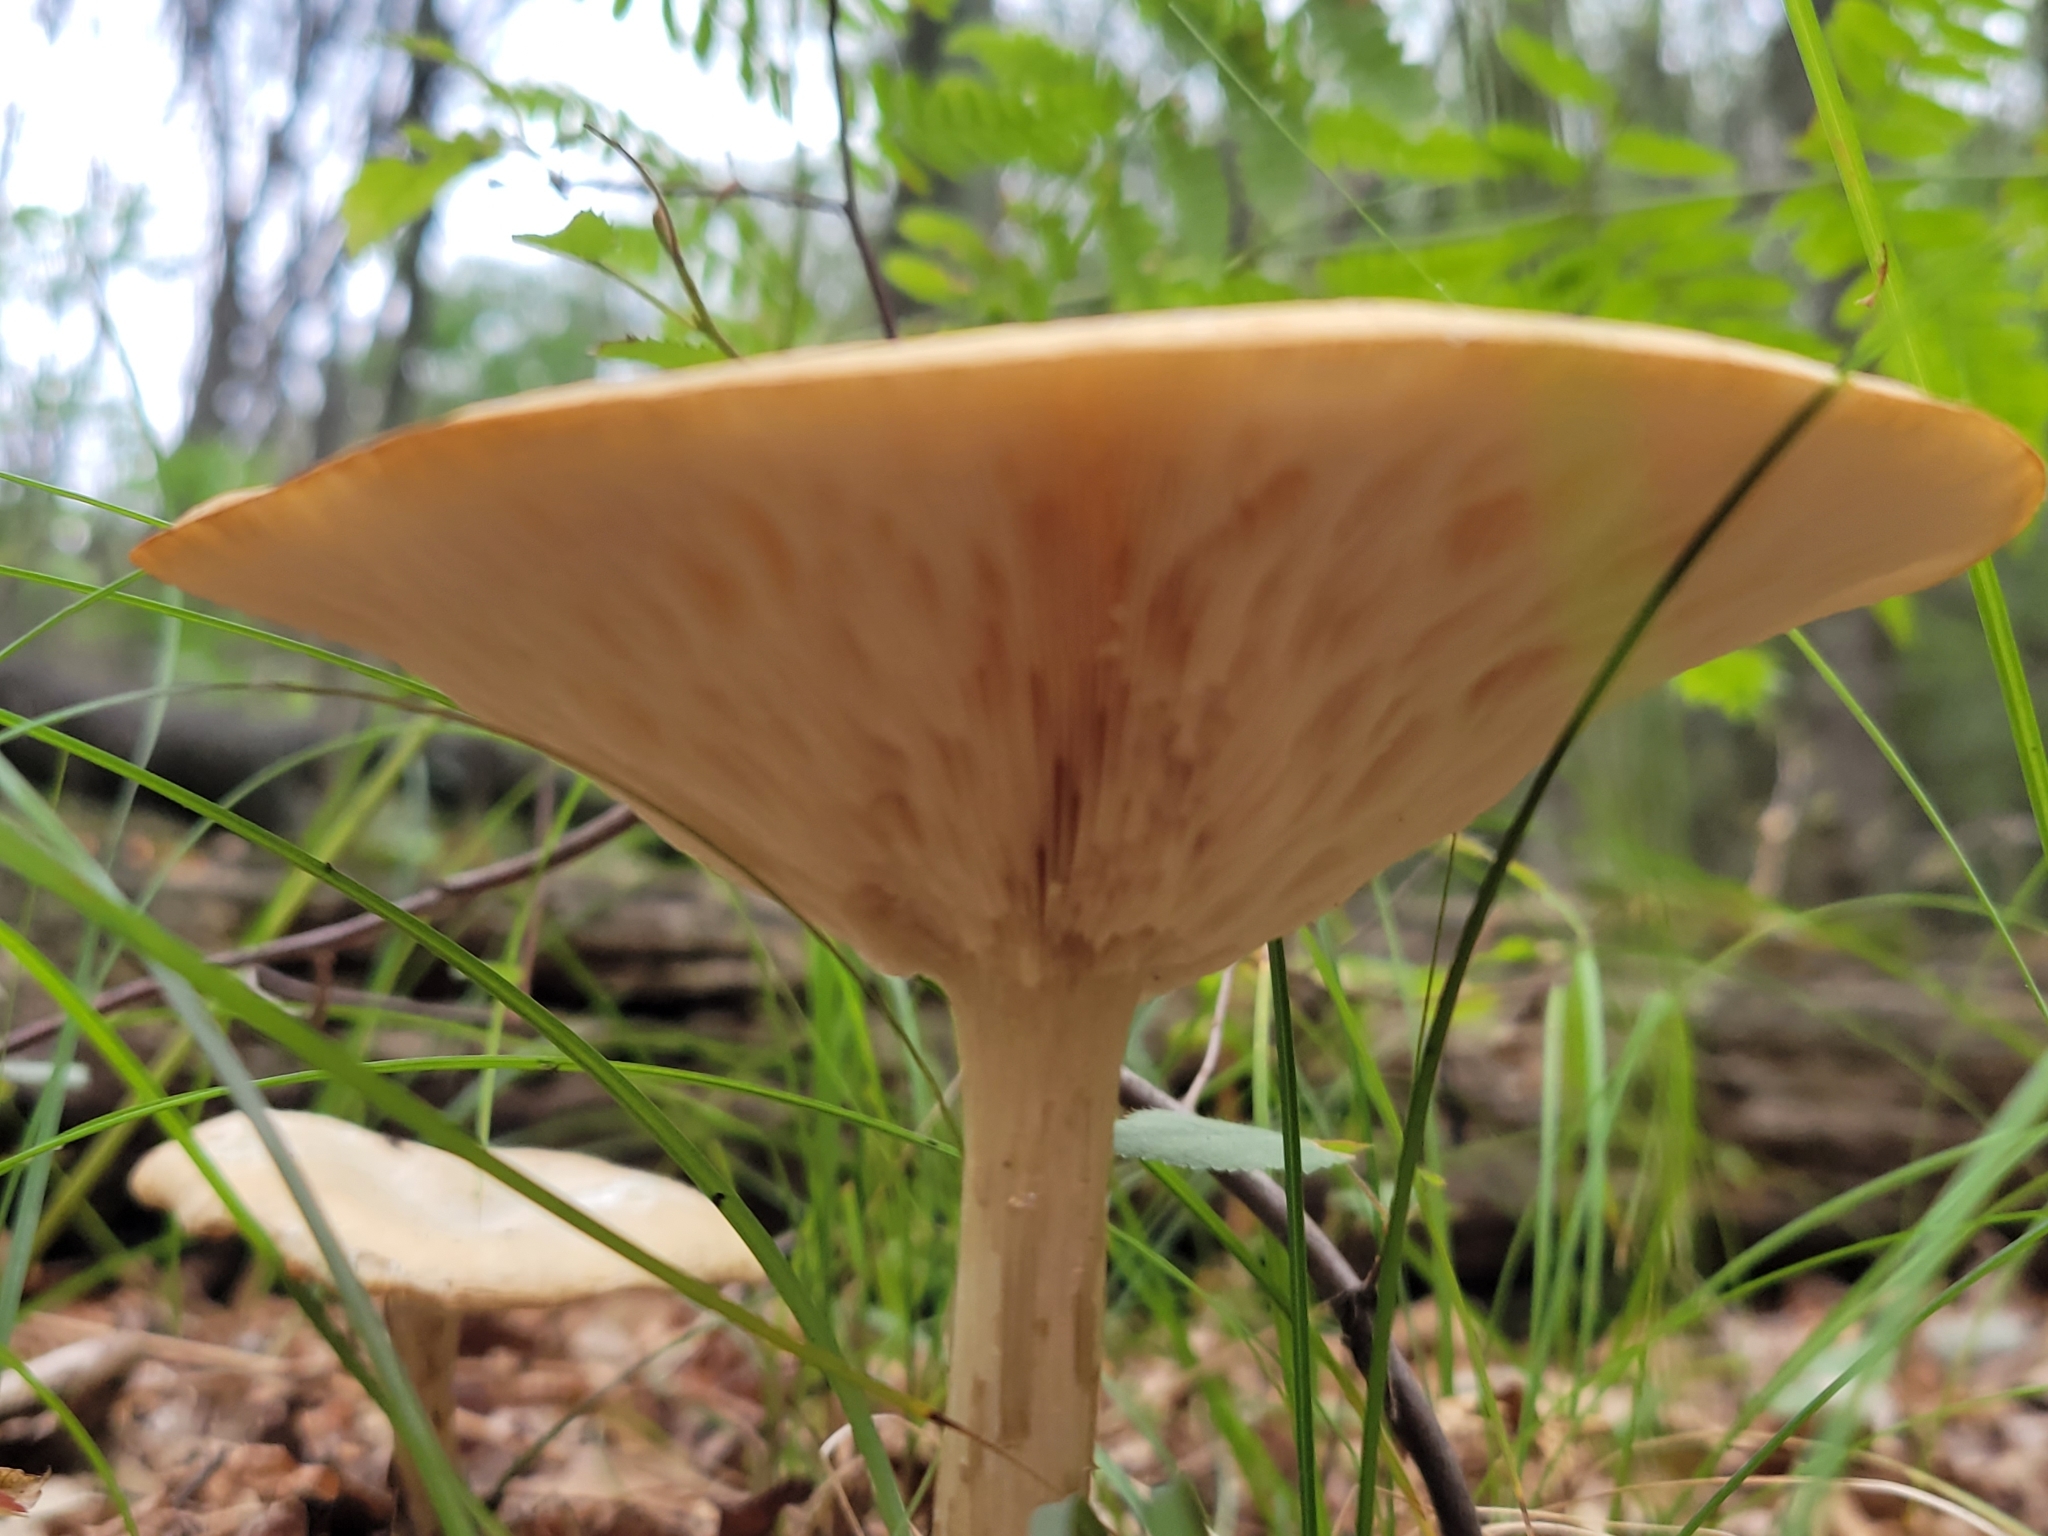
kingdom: Fungi
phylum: Basidiomycota
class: Agaricomycetes
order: Agaricales
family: Tricholomataceae
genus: Collybia
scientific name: Collybia alboflavida
